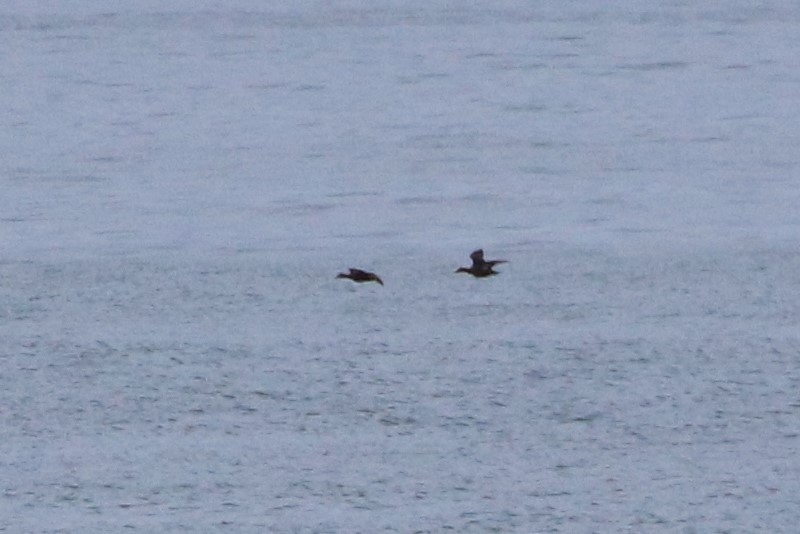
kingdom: Animalia
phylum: Chordata
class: Aves
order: Anseriformes
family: Anatidae
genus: Somateria
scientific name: Somateria mollissima
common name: Common eider
